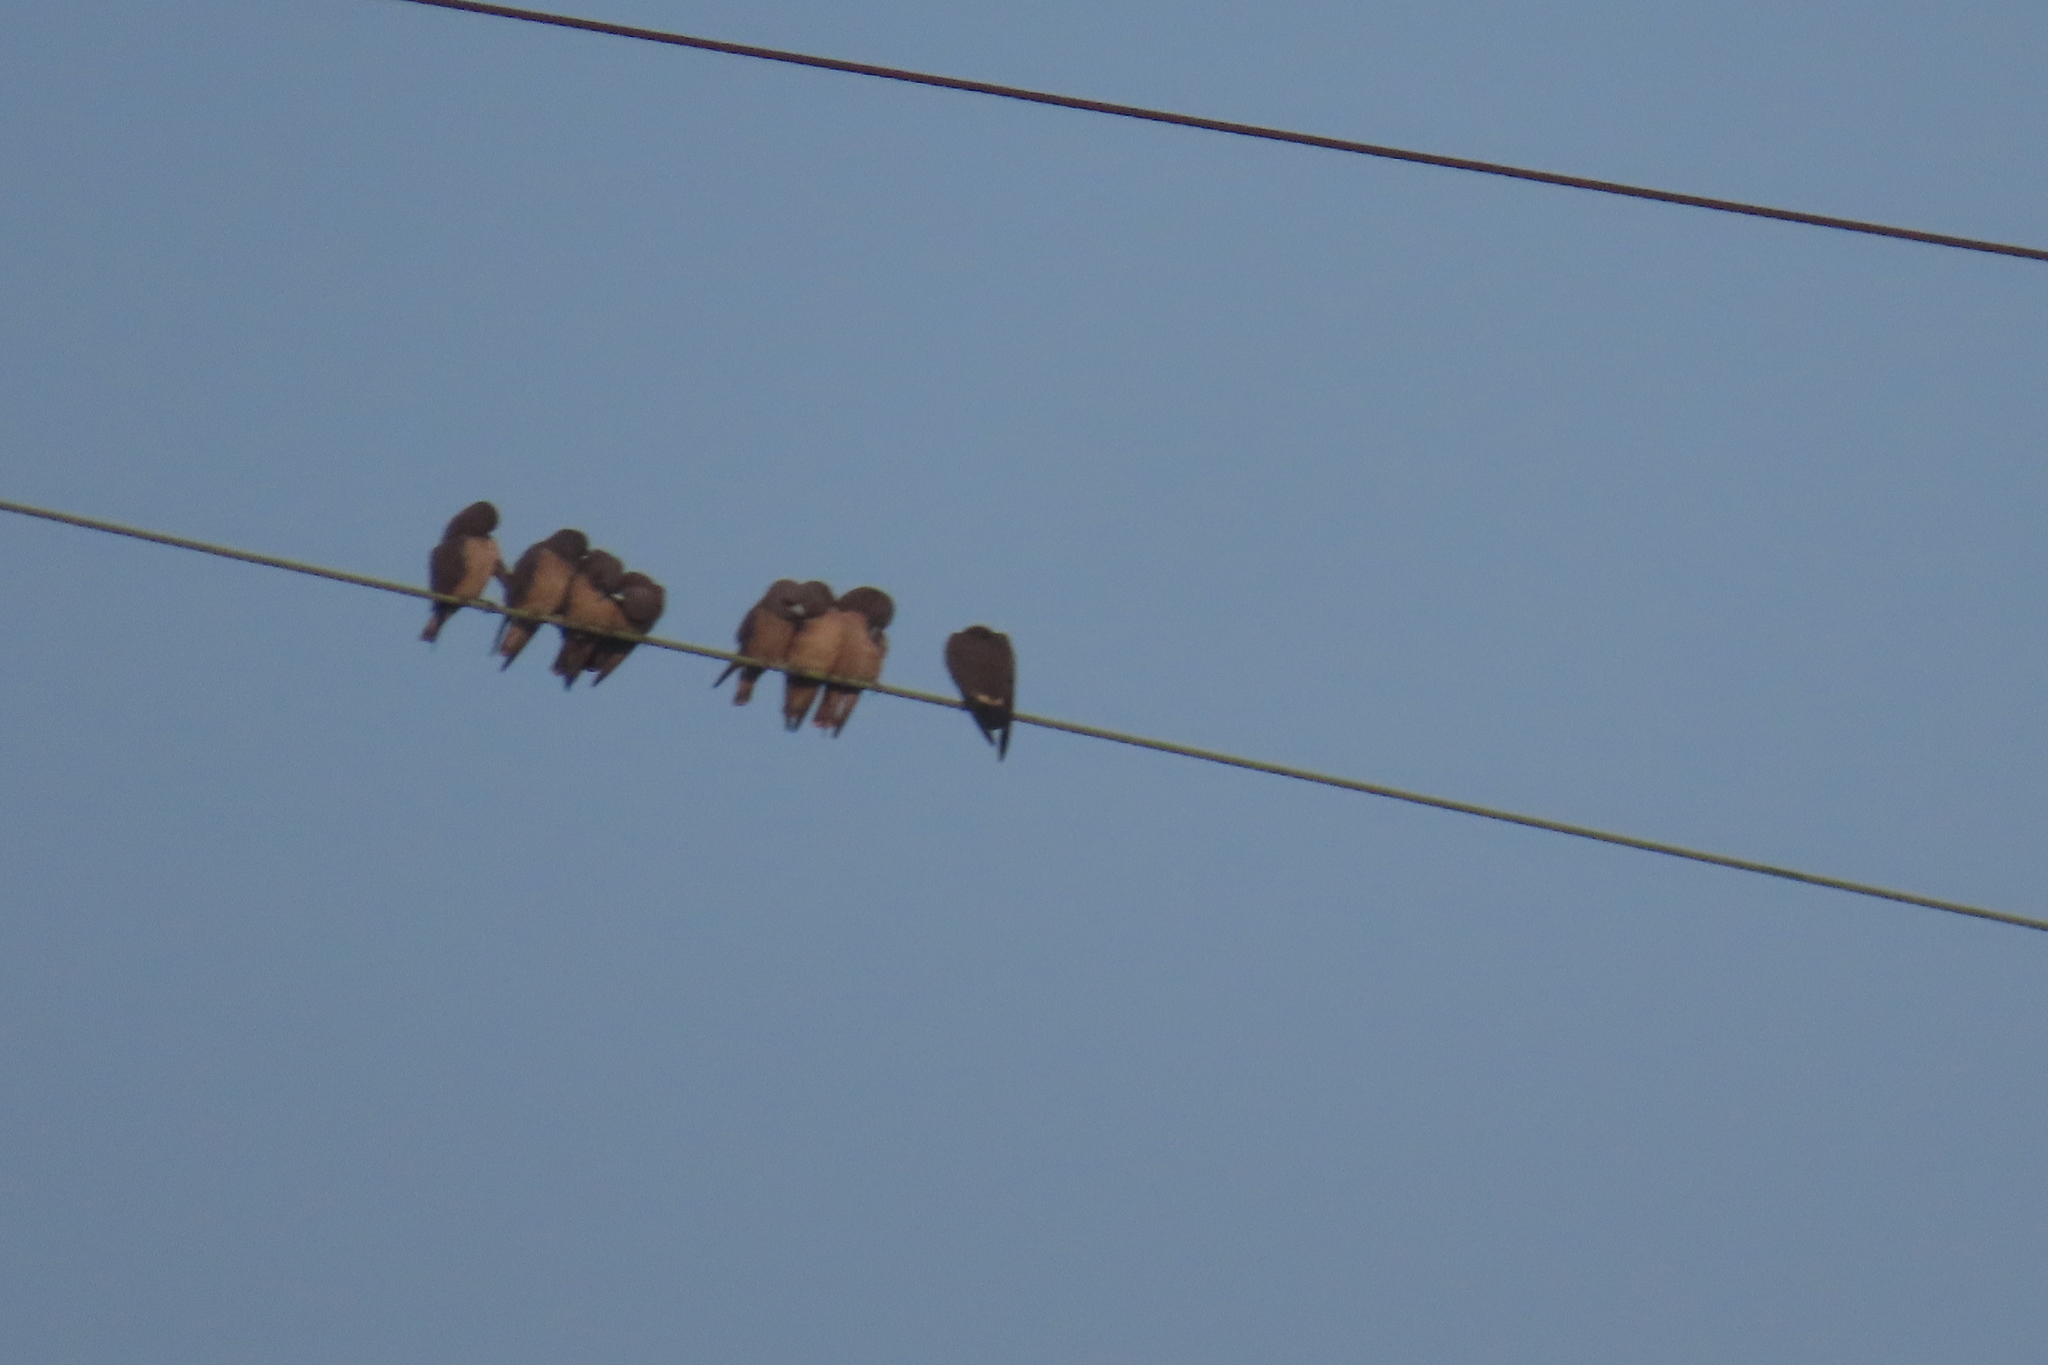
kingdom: Animalia
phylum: Chordata
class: Aves
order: Passeriformes
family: Artamidae
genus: Artamus
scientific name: Artamus fuscus
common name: Ashy woodswallow
